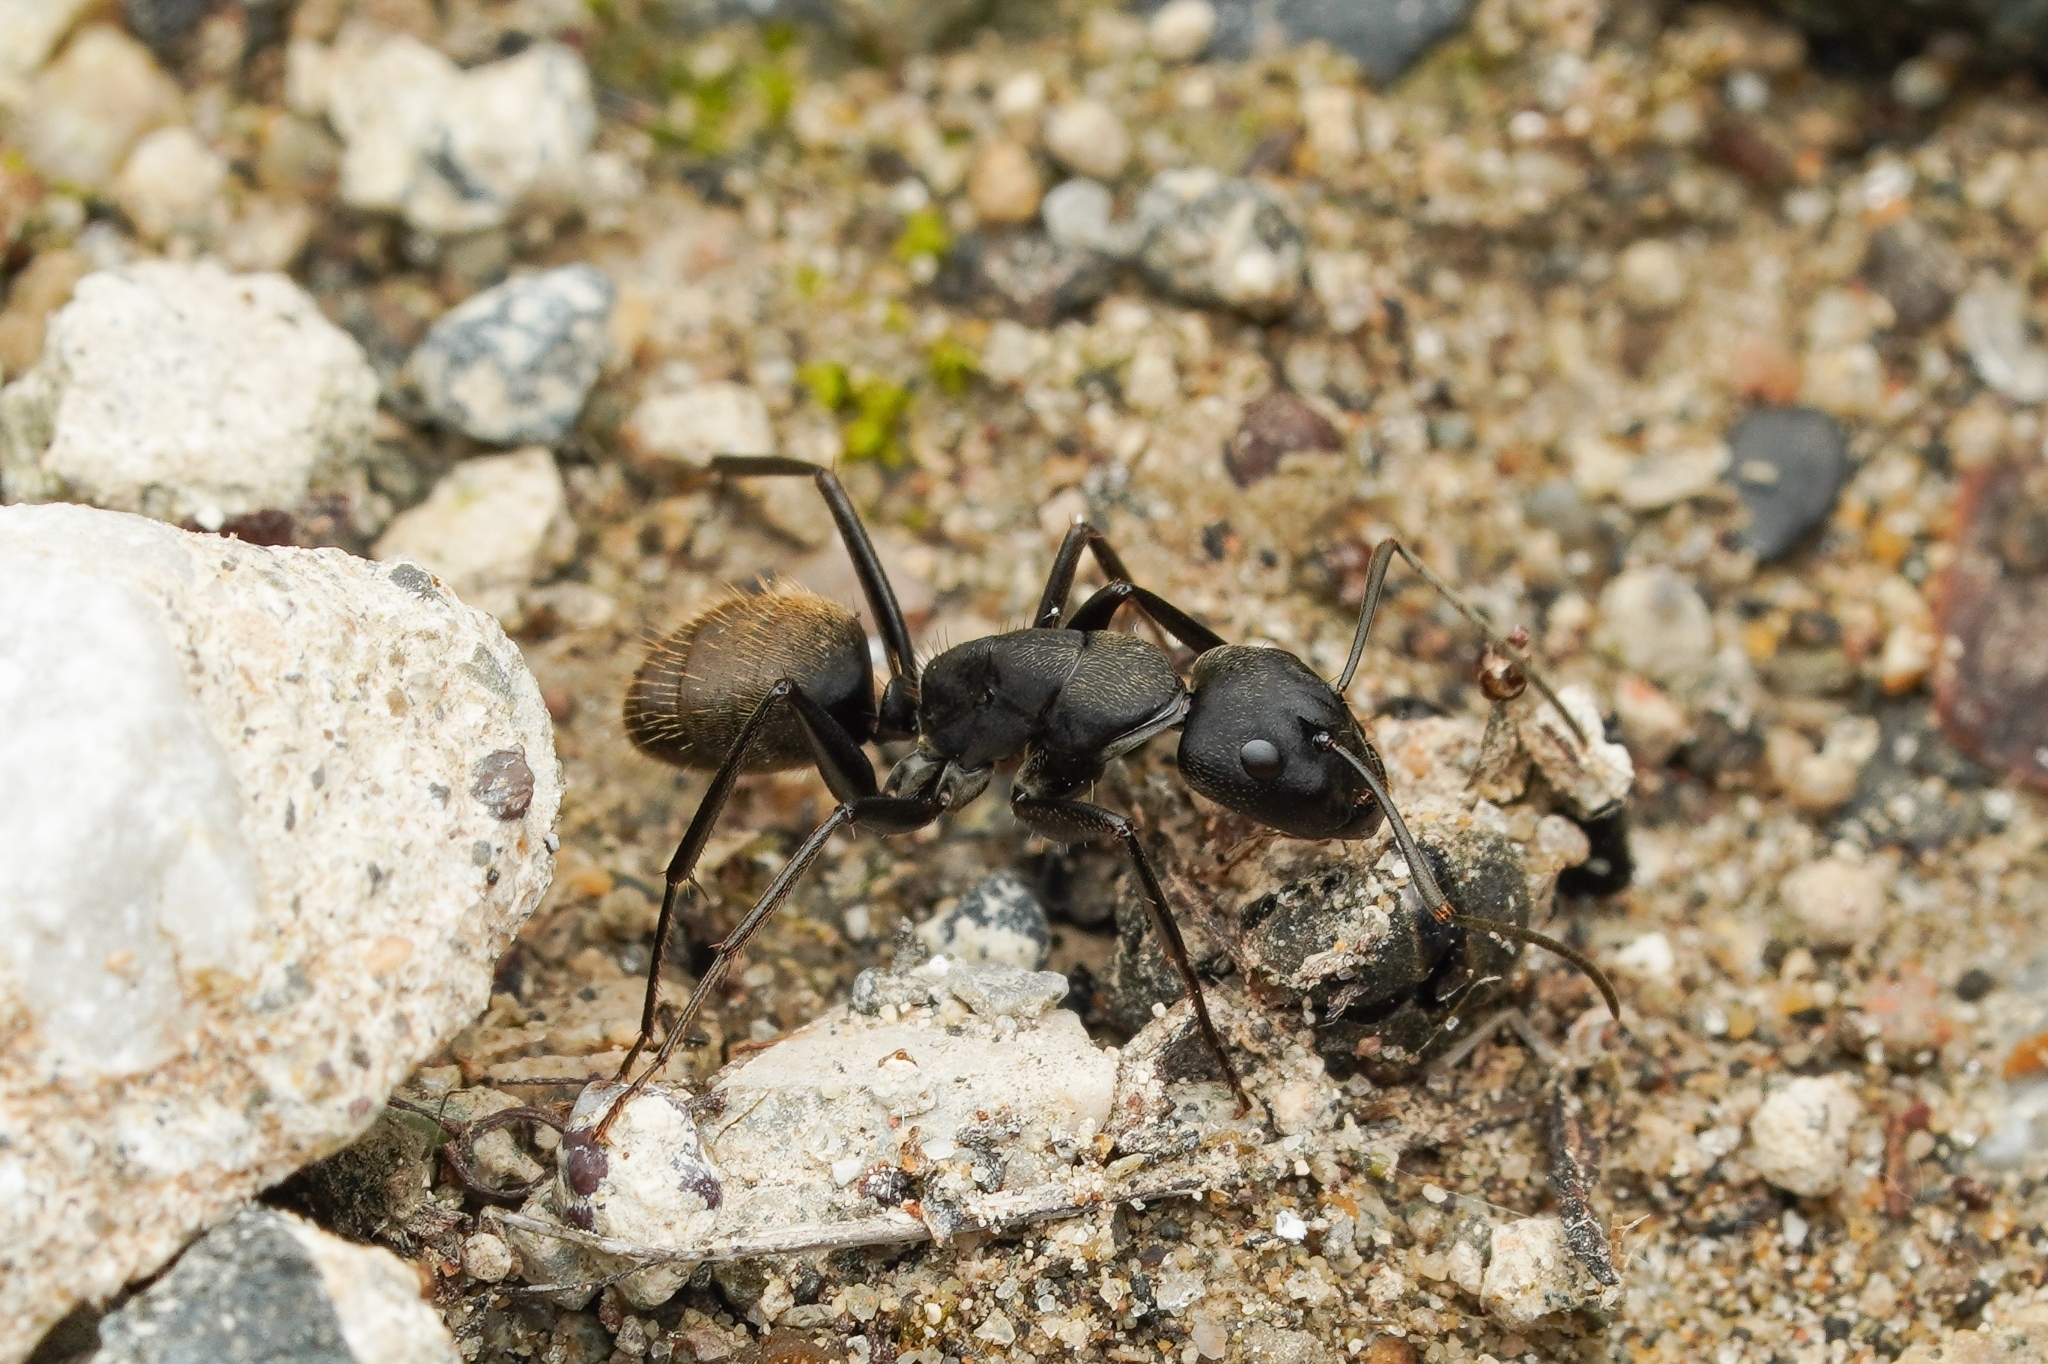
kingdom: Animalia
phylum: Arthropoda
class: Insecta
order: Hymenoptera
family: Formicidae
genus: Camponotus
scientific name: Camponotus japonicus
